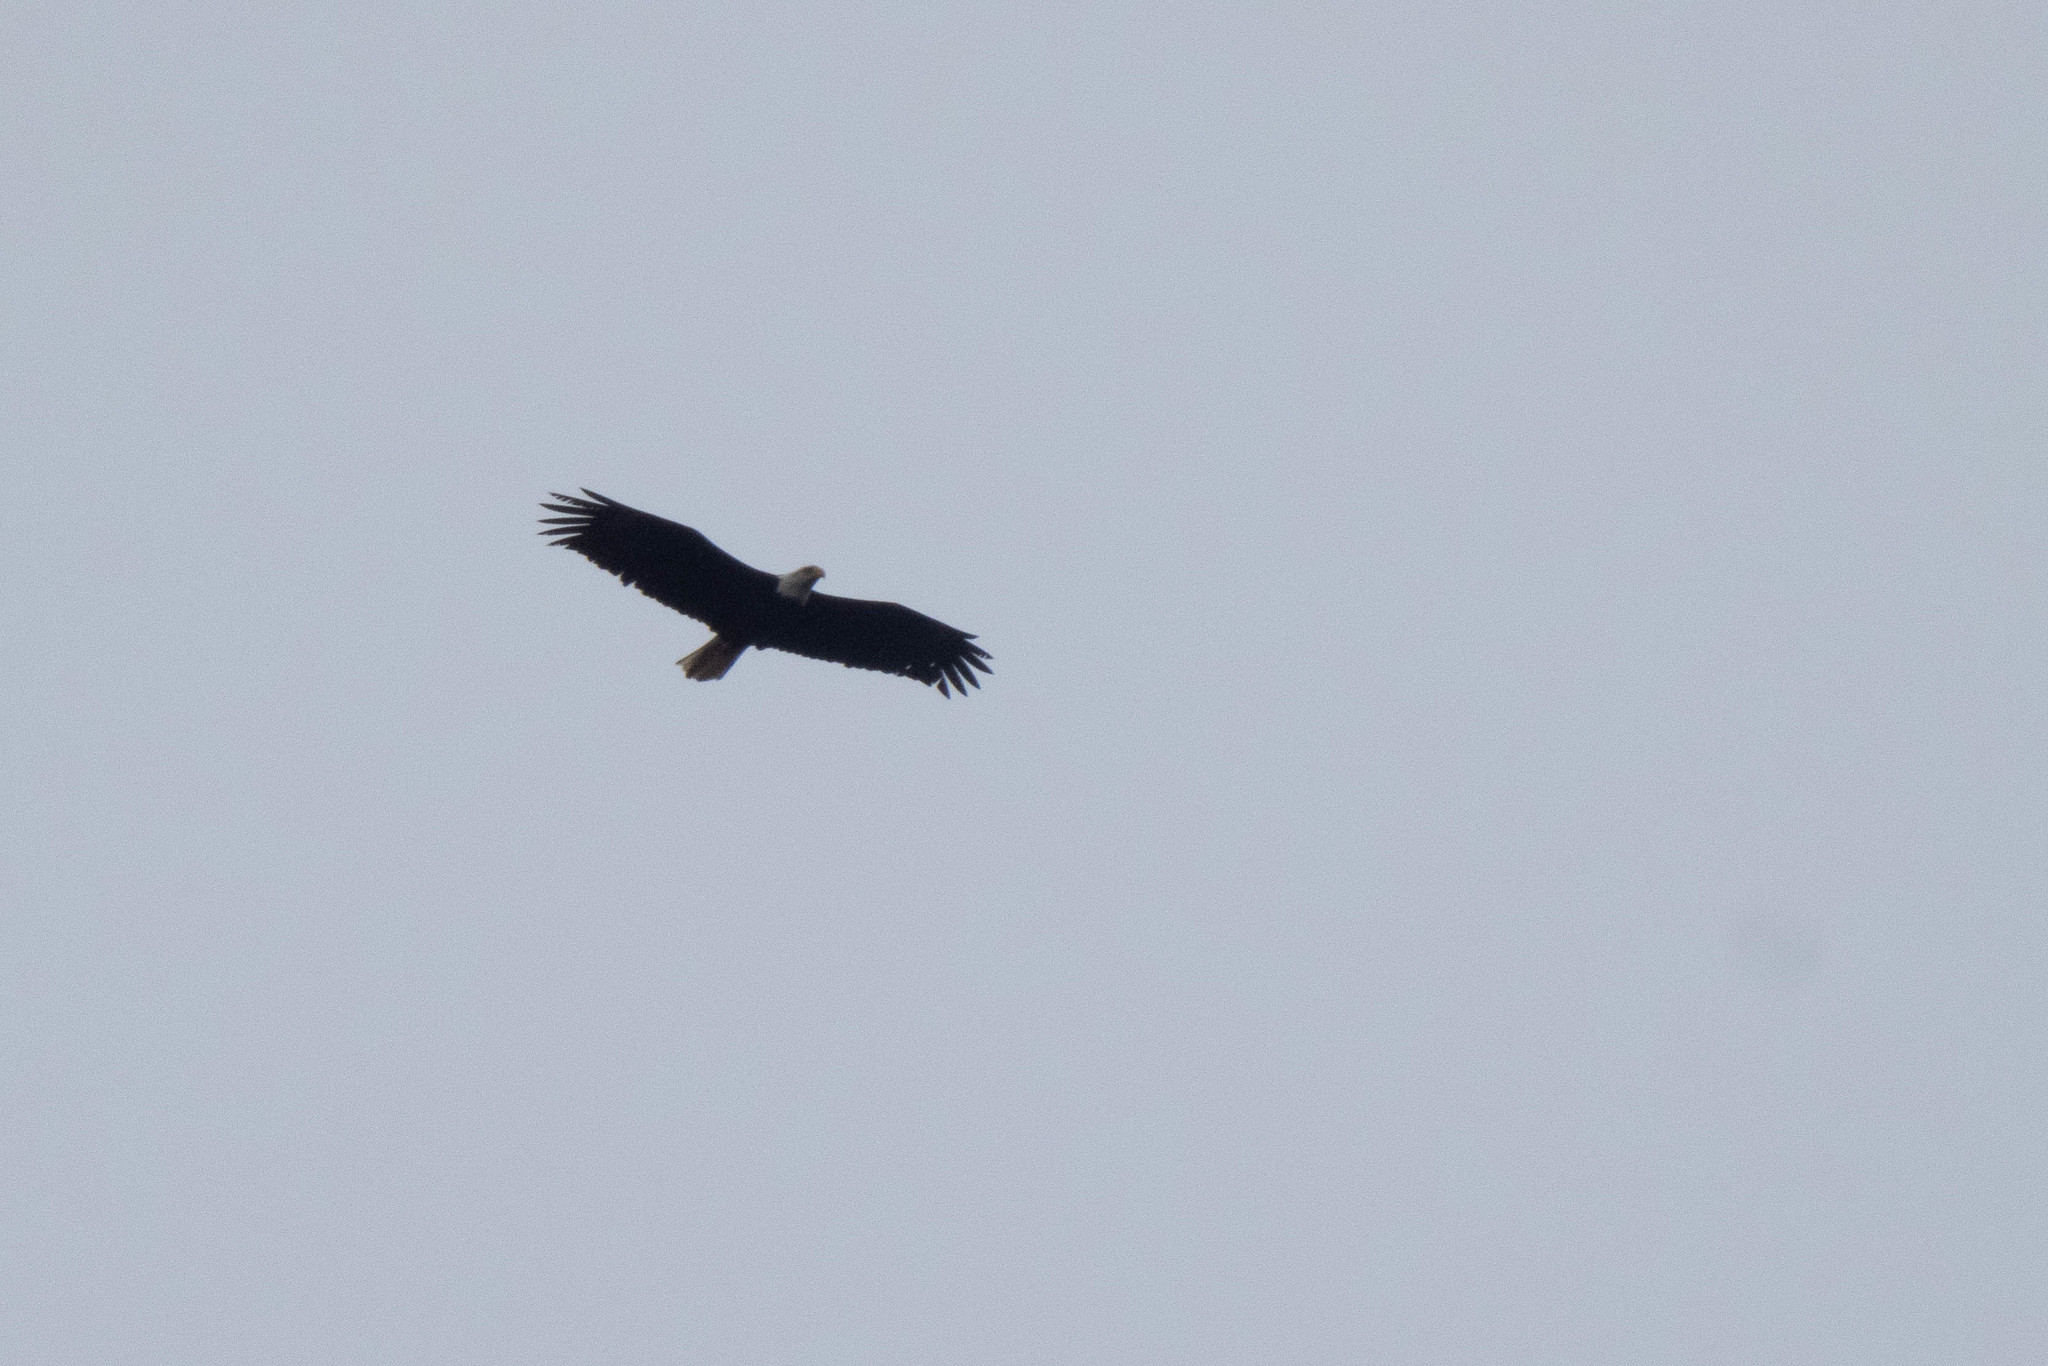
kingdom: Animalia
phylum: Chordata
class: Aves
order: Accipitriformes
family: Accipitridae
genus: Haliaeetus
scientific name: Haliaeetus leucocephalus
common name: Bald eagle
